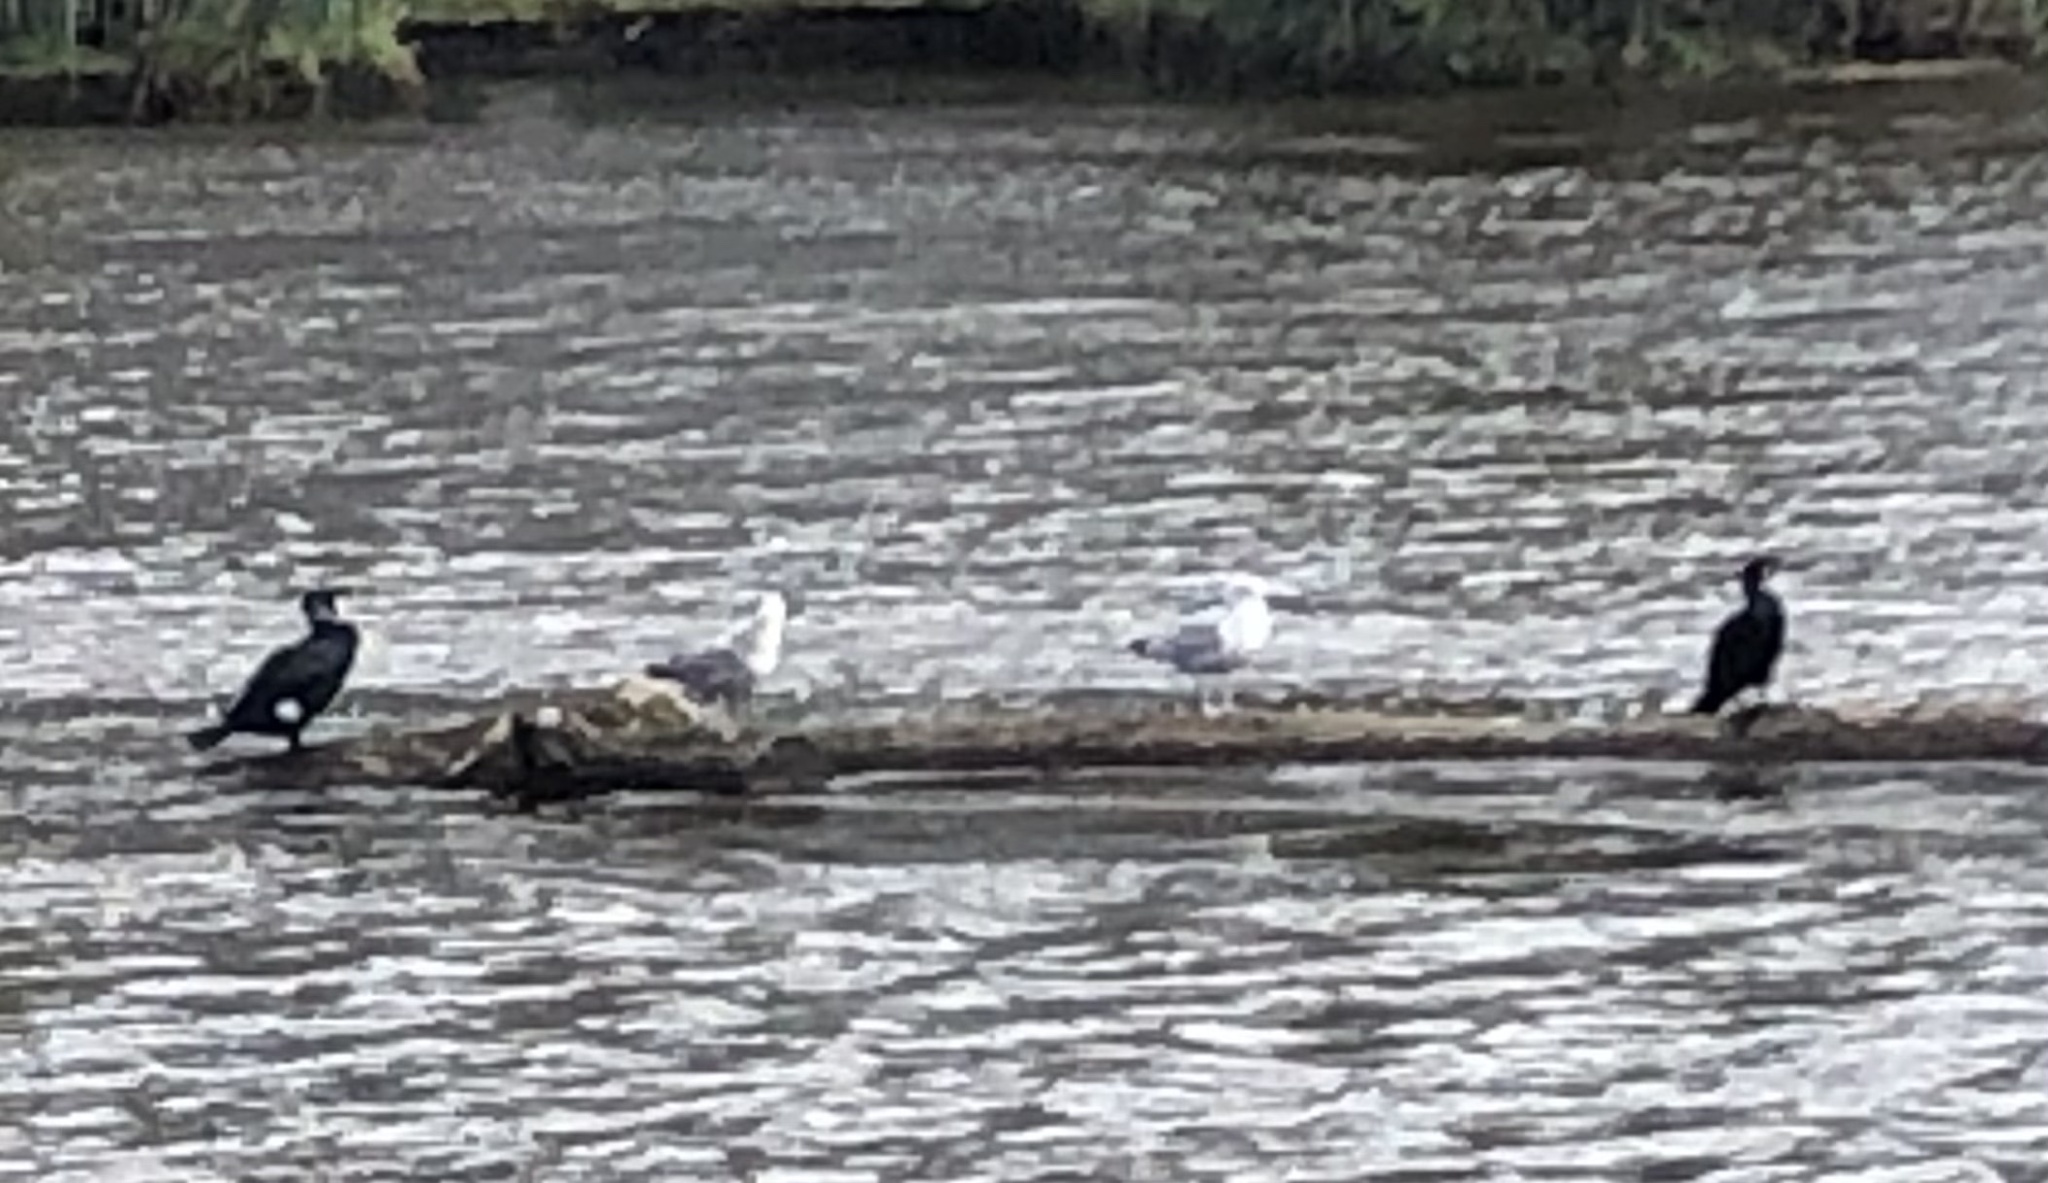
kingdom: Animalia
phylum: Chordata
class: Aves
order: Suliformes
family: Phalacrocoracidae
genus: Phalacrocorax
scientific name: Phalacrocorax carbo
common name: Great cormorant
